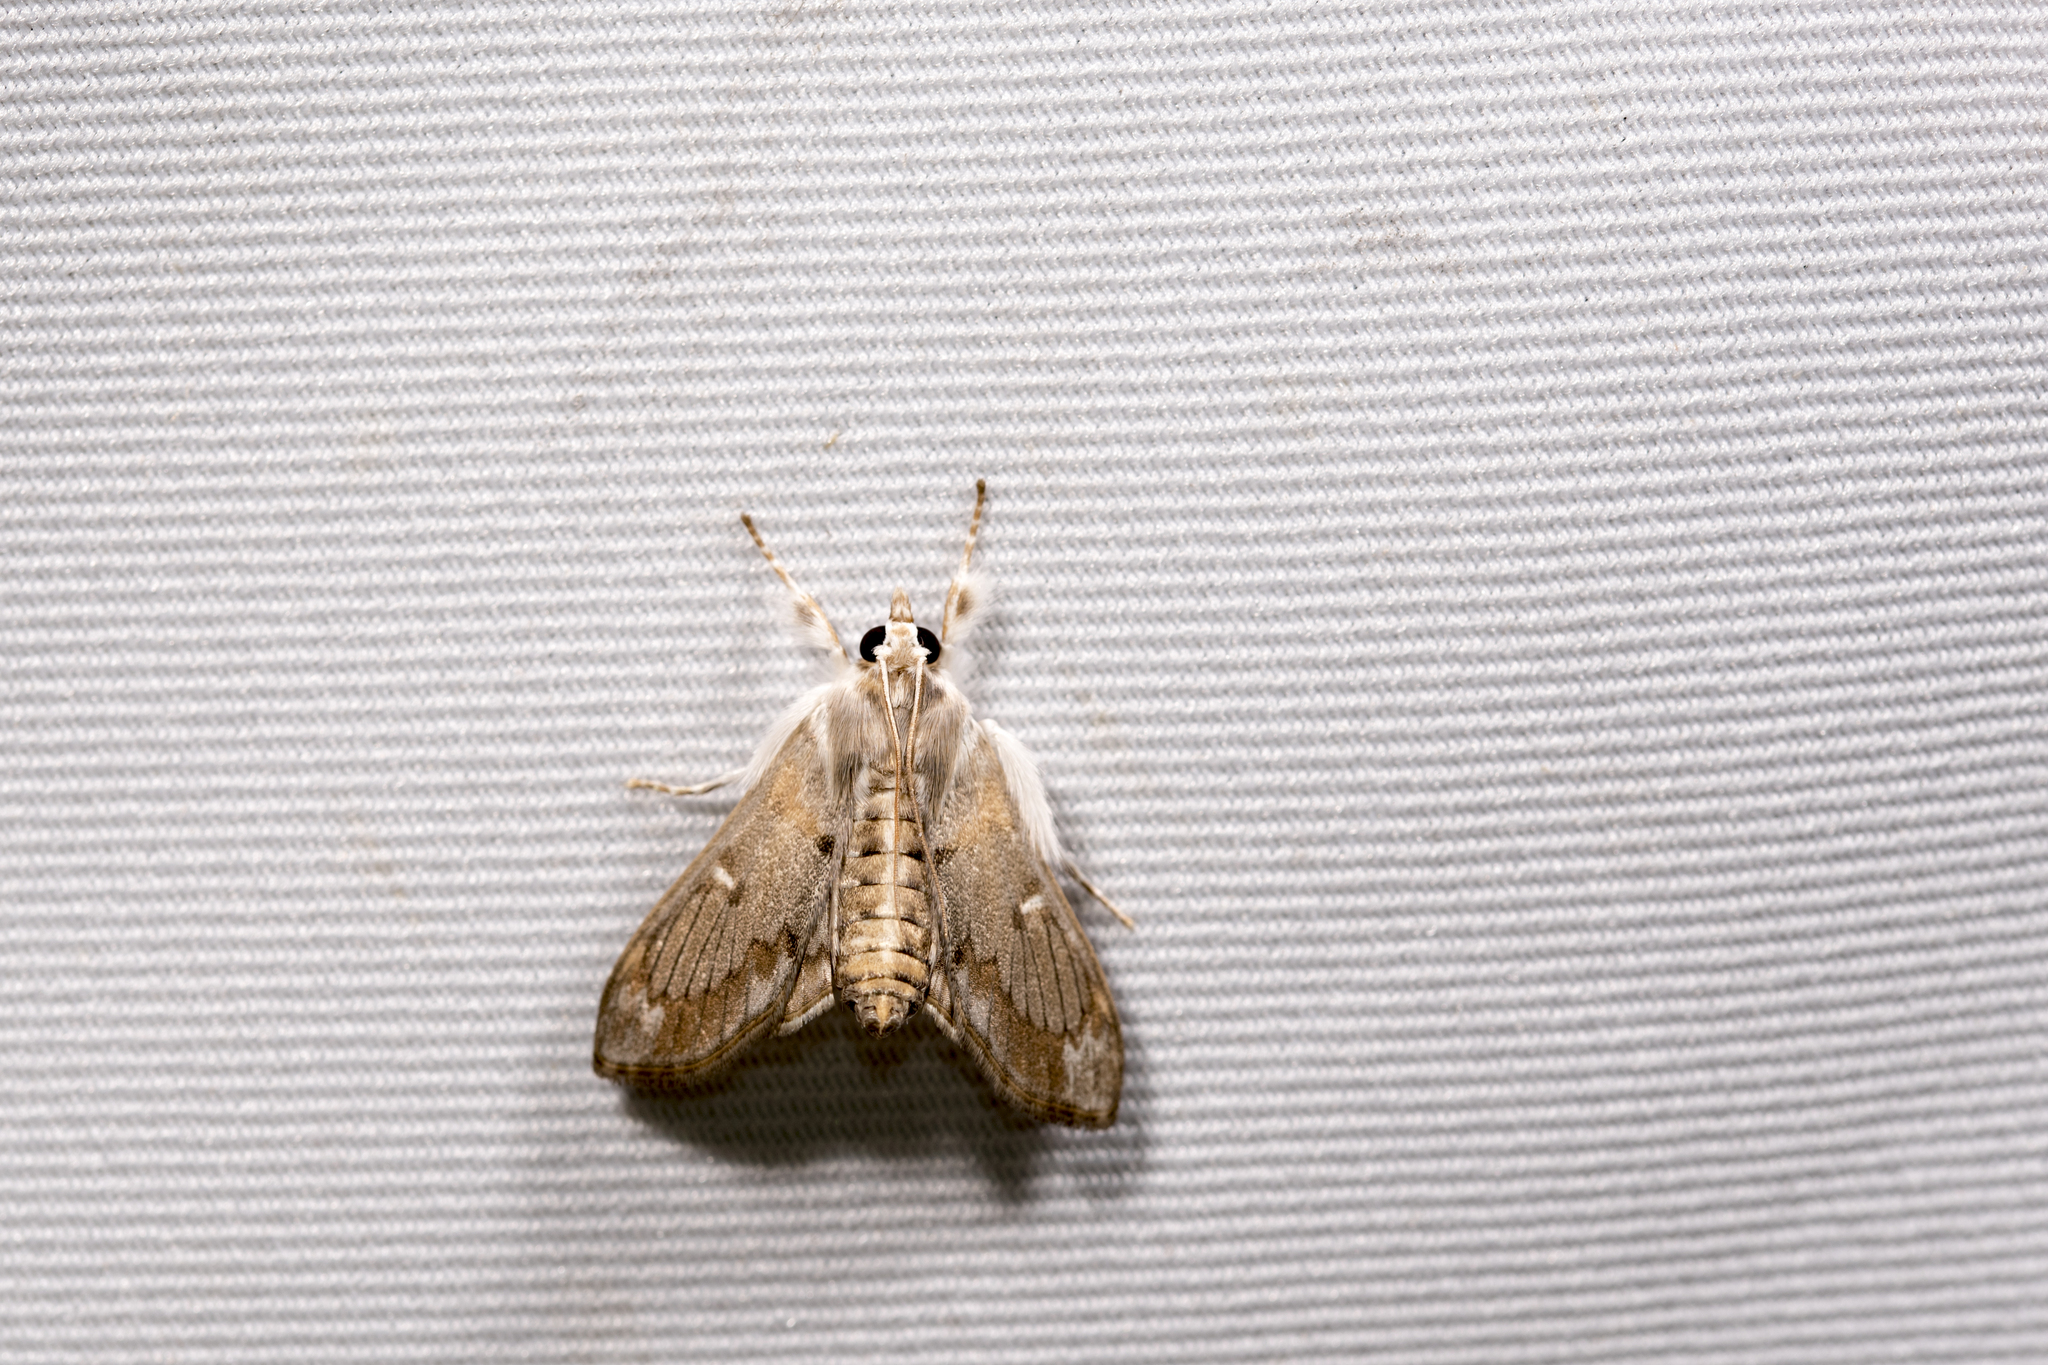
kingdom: Animalia
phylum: Arthropoda
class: Insecta
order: Lepidoptera
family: Crambidae
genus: Cirrhochrista
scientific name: Cirrhochrista spissalis
